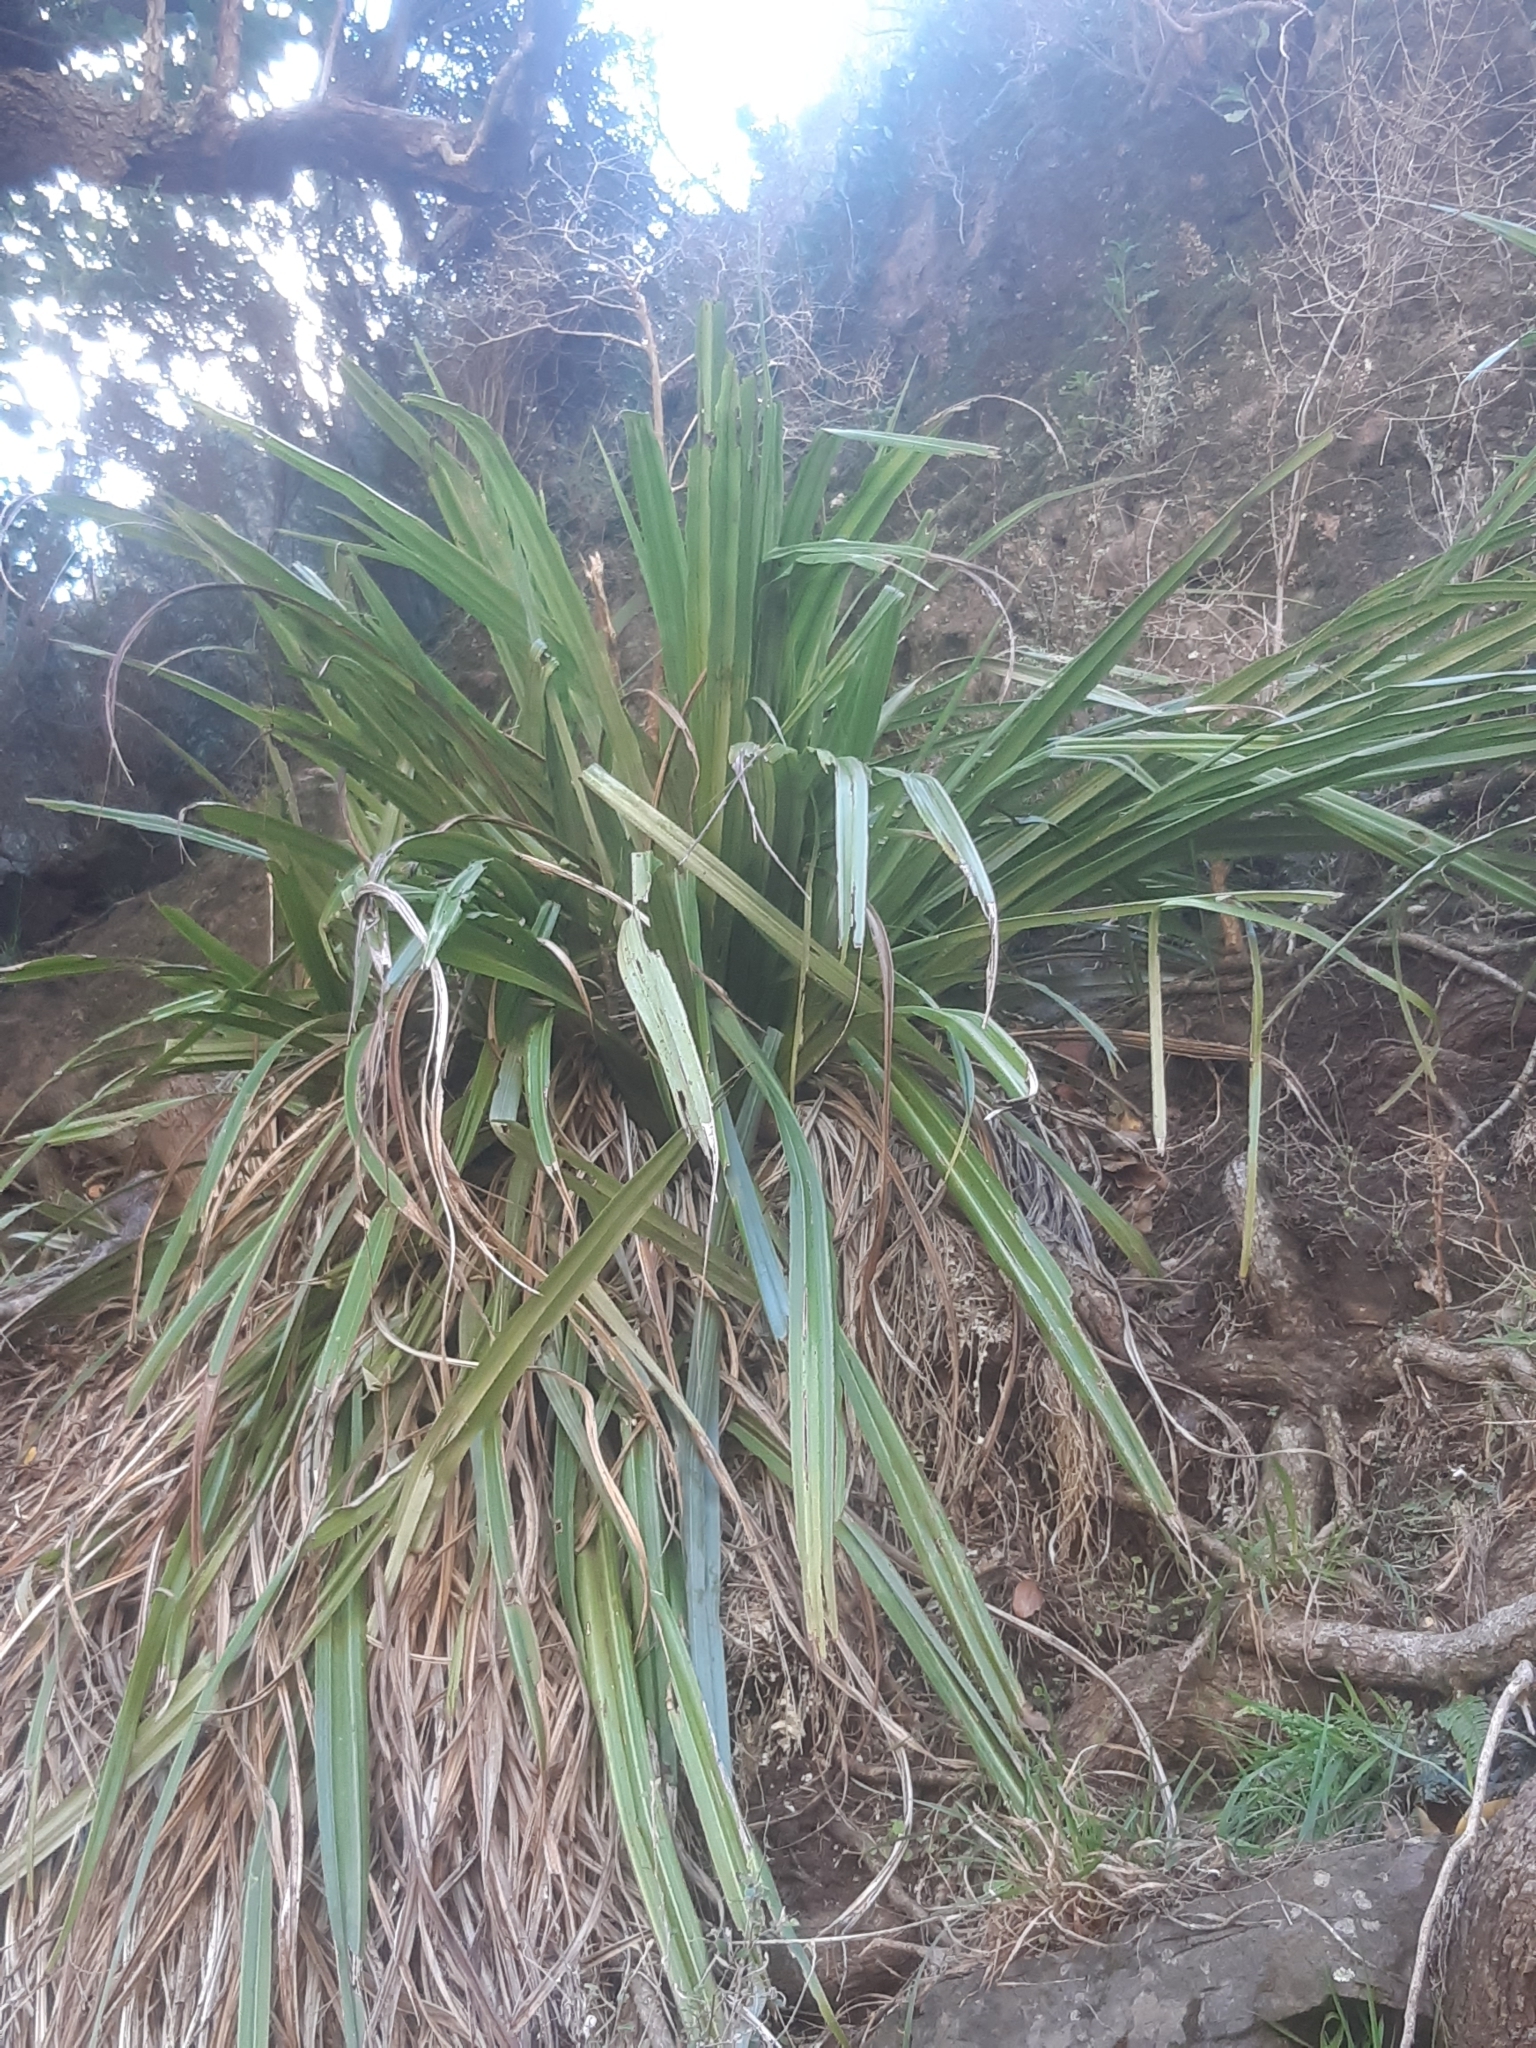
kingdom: Plantae
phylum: Tracheophyta
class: Liliopsida
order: Asparagales
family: Asteliaceae
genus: Astelia
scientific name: Astelia fragrans
